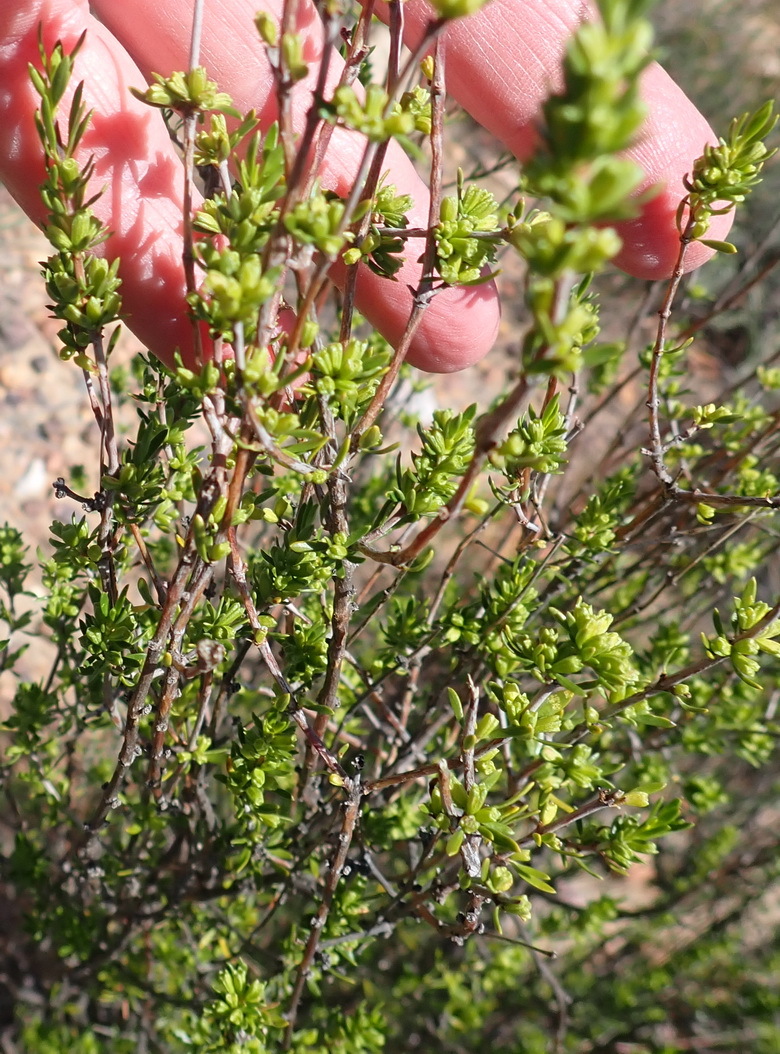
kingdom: Plantae
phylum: Tracheophyta
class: Magnoliopsida
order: Gentianales
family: Rubiaceae
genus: Anthospermum
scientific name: Anthospermum spathulatum
